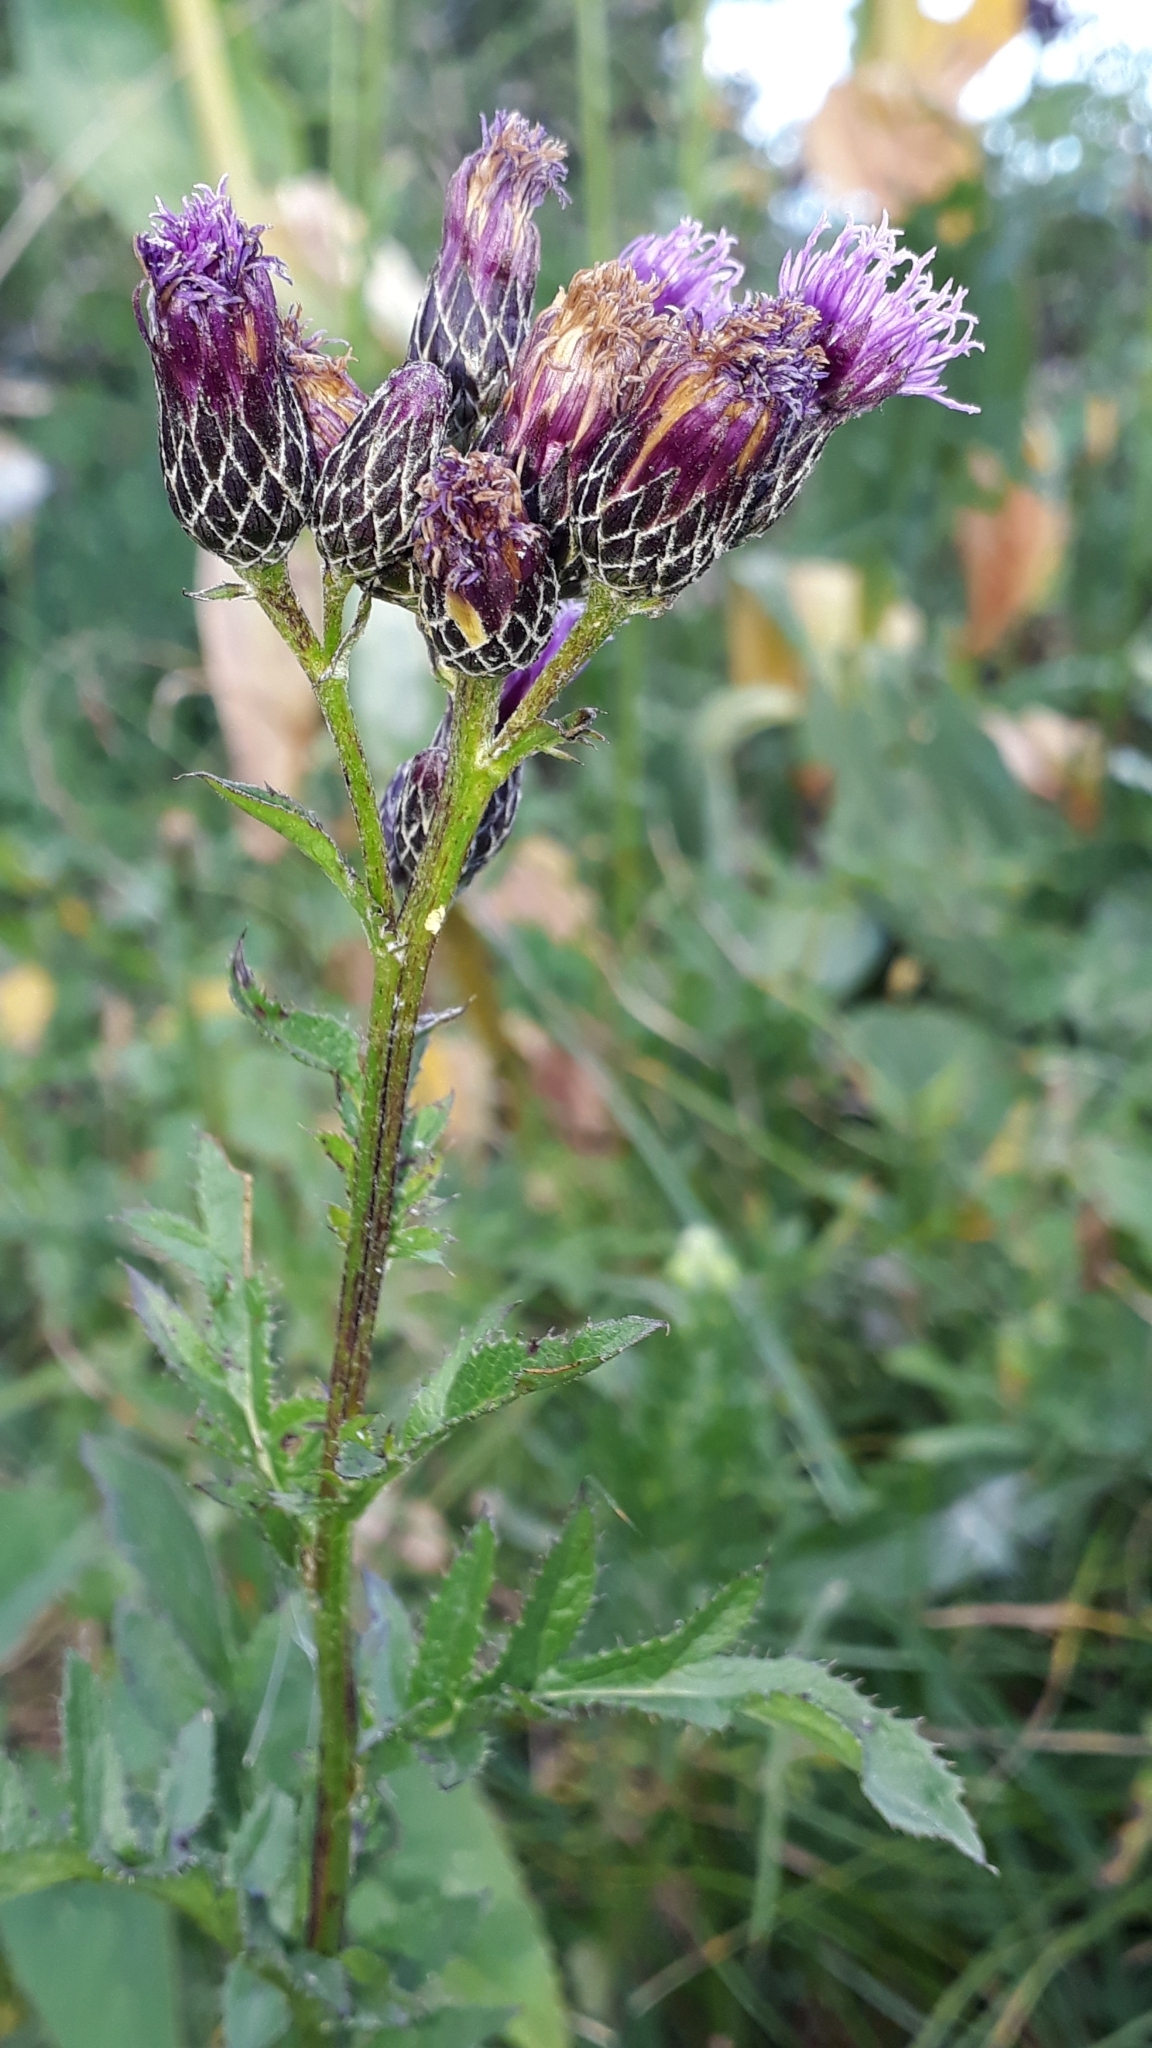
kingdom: Plantae
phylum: Tracheophyta
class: Magnoliopsida
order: Asterales
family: Asteraceae
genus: Serratula
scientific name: Serratula tinctoria
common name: Saw-wort
